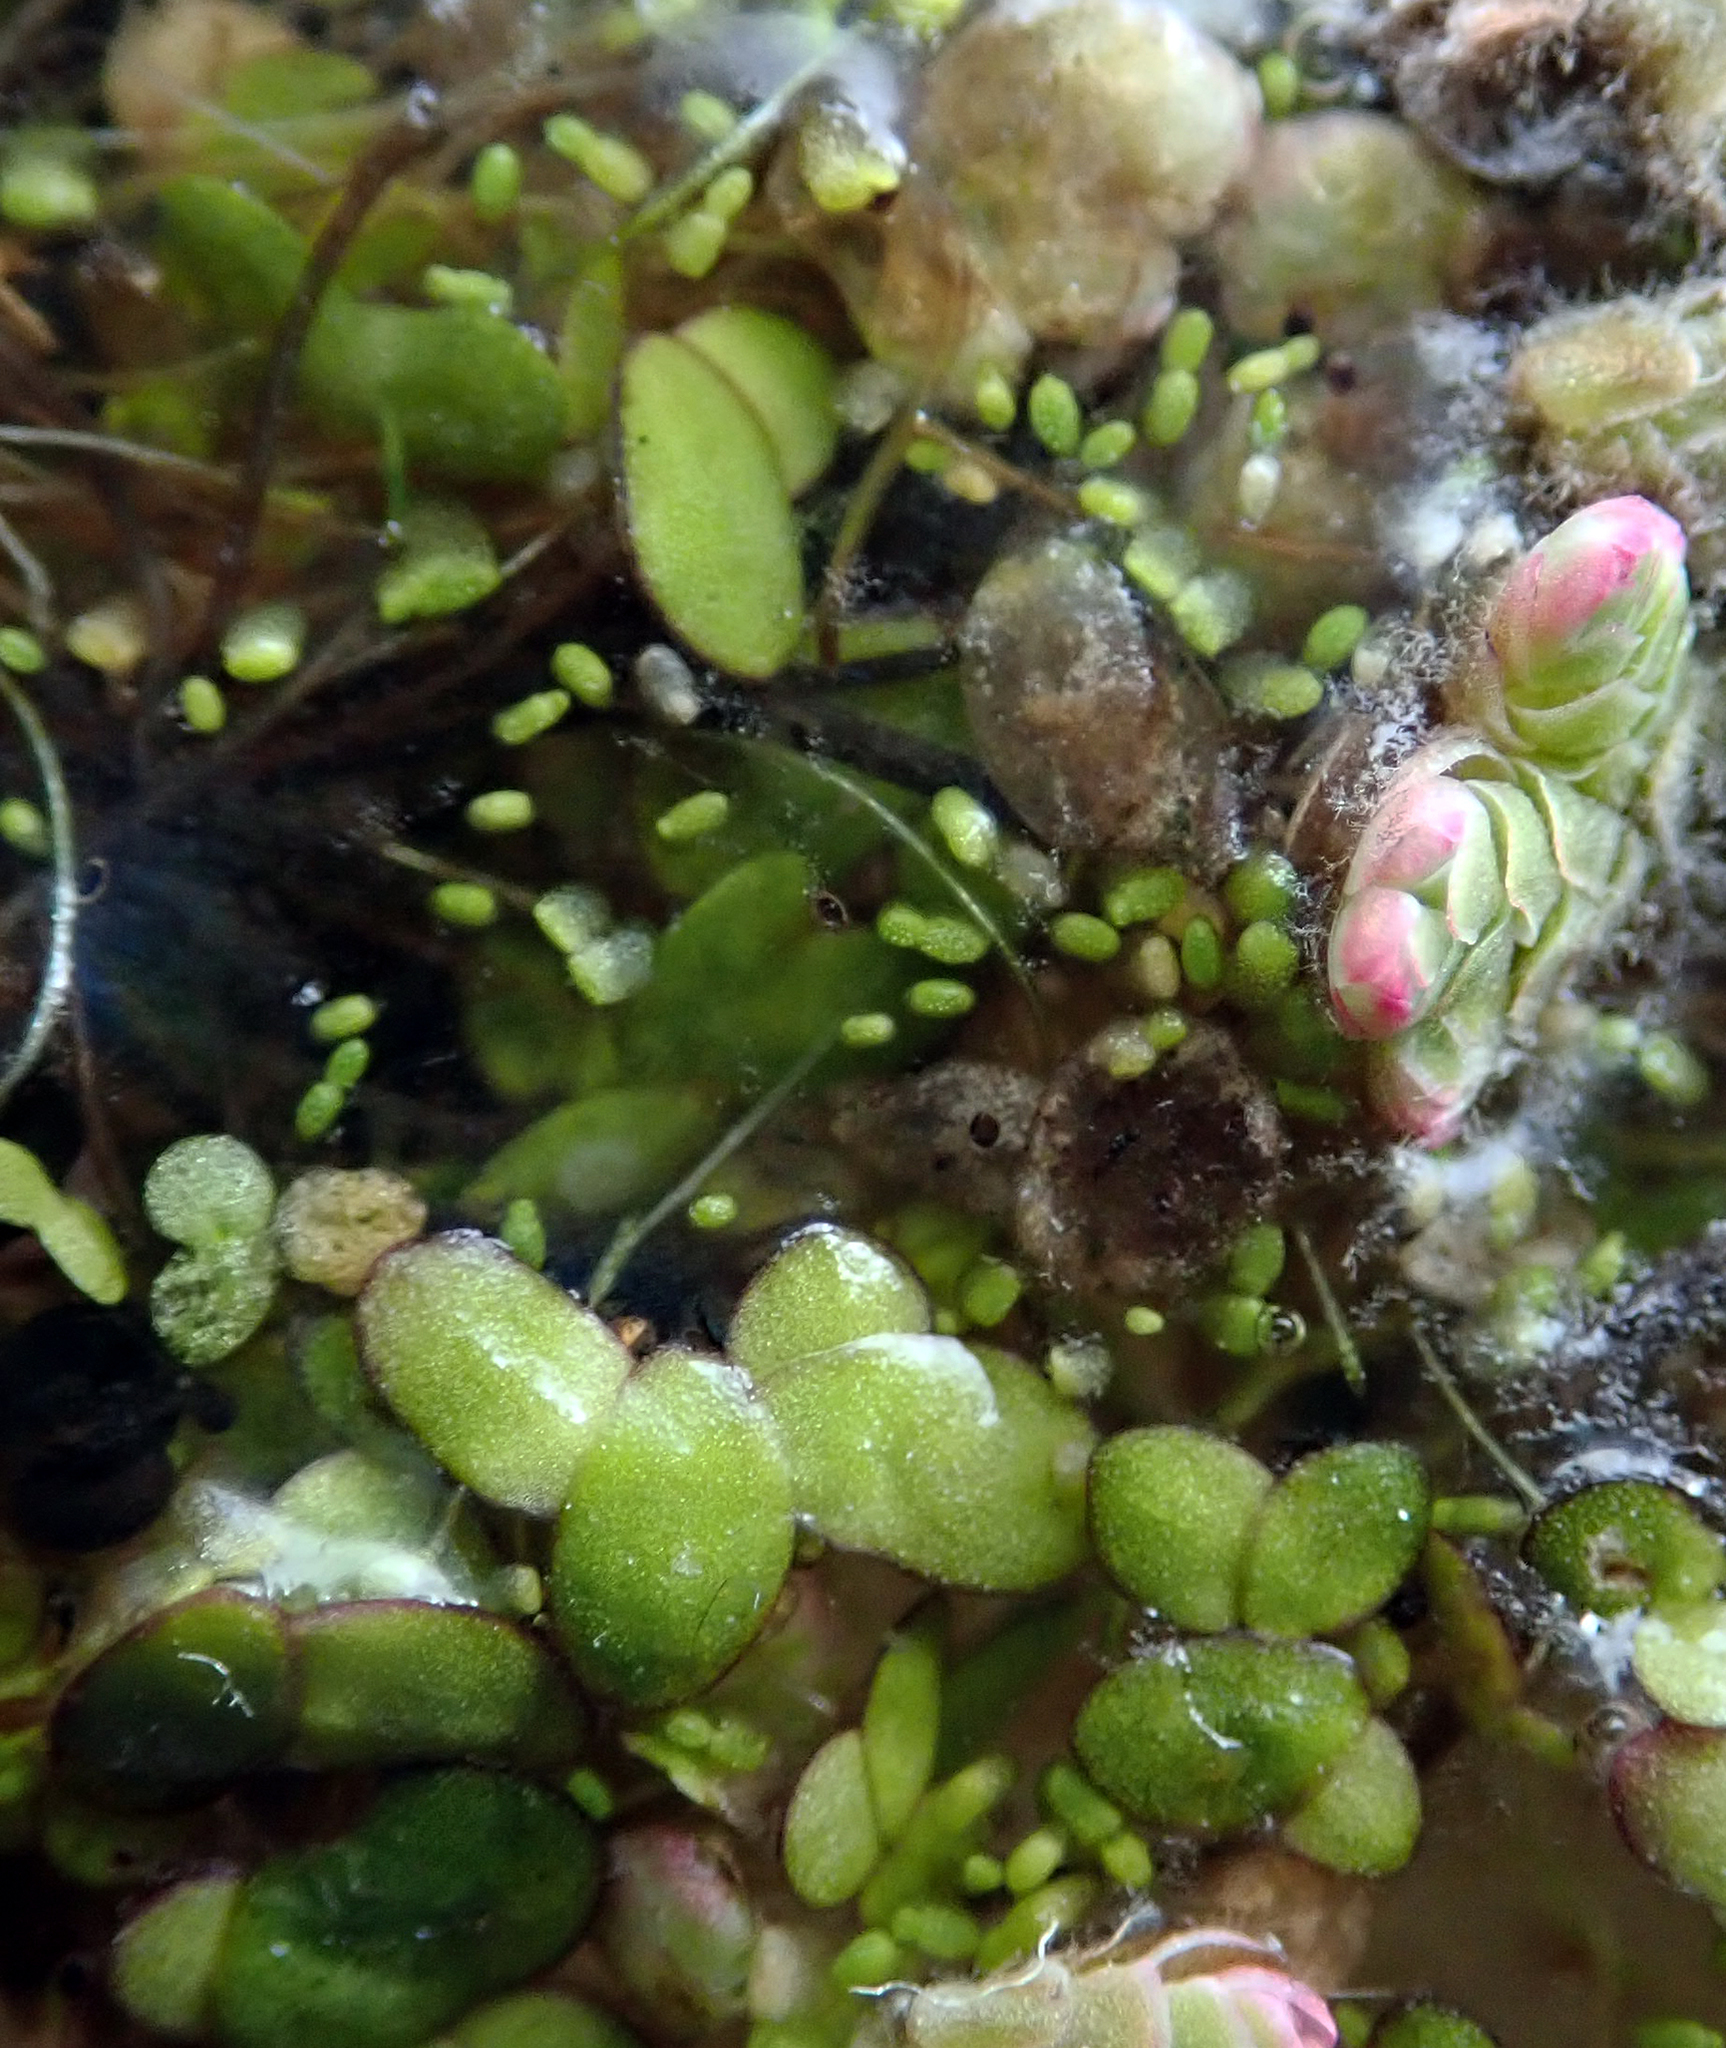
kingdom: Plantae
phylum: Tracheophyta
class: Liliopsida
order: Alismatales
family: Araceae
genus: Wolffia
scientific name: Wolffia australiana
